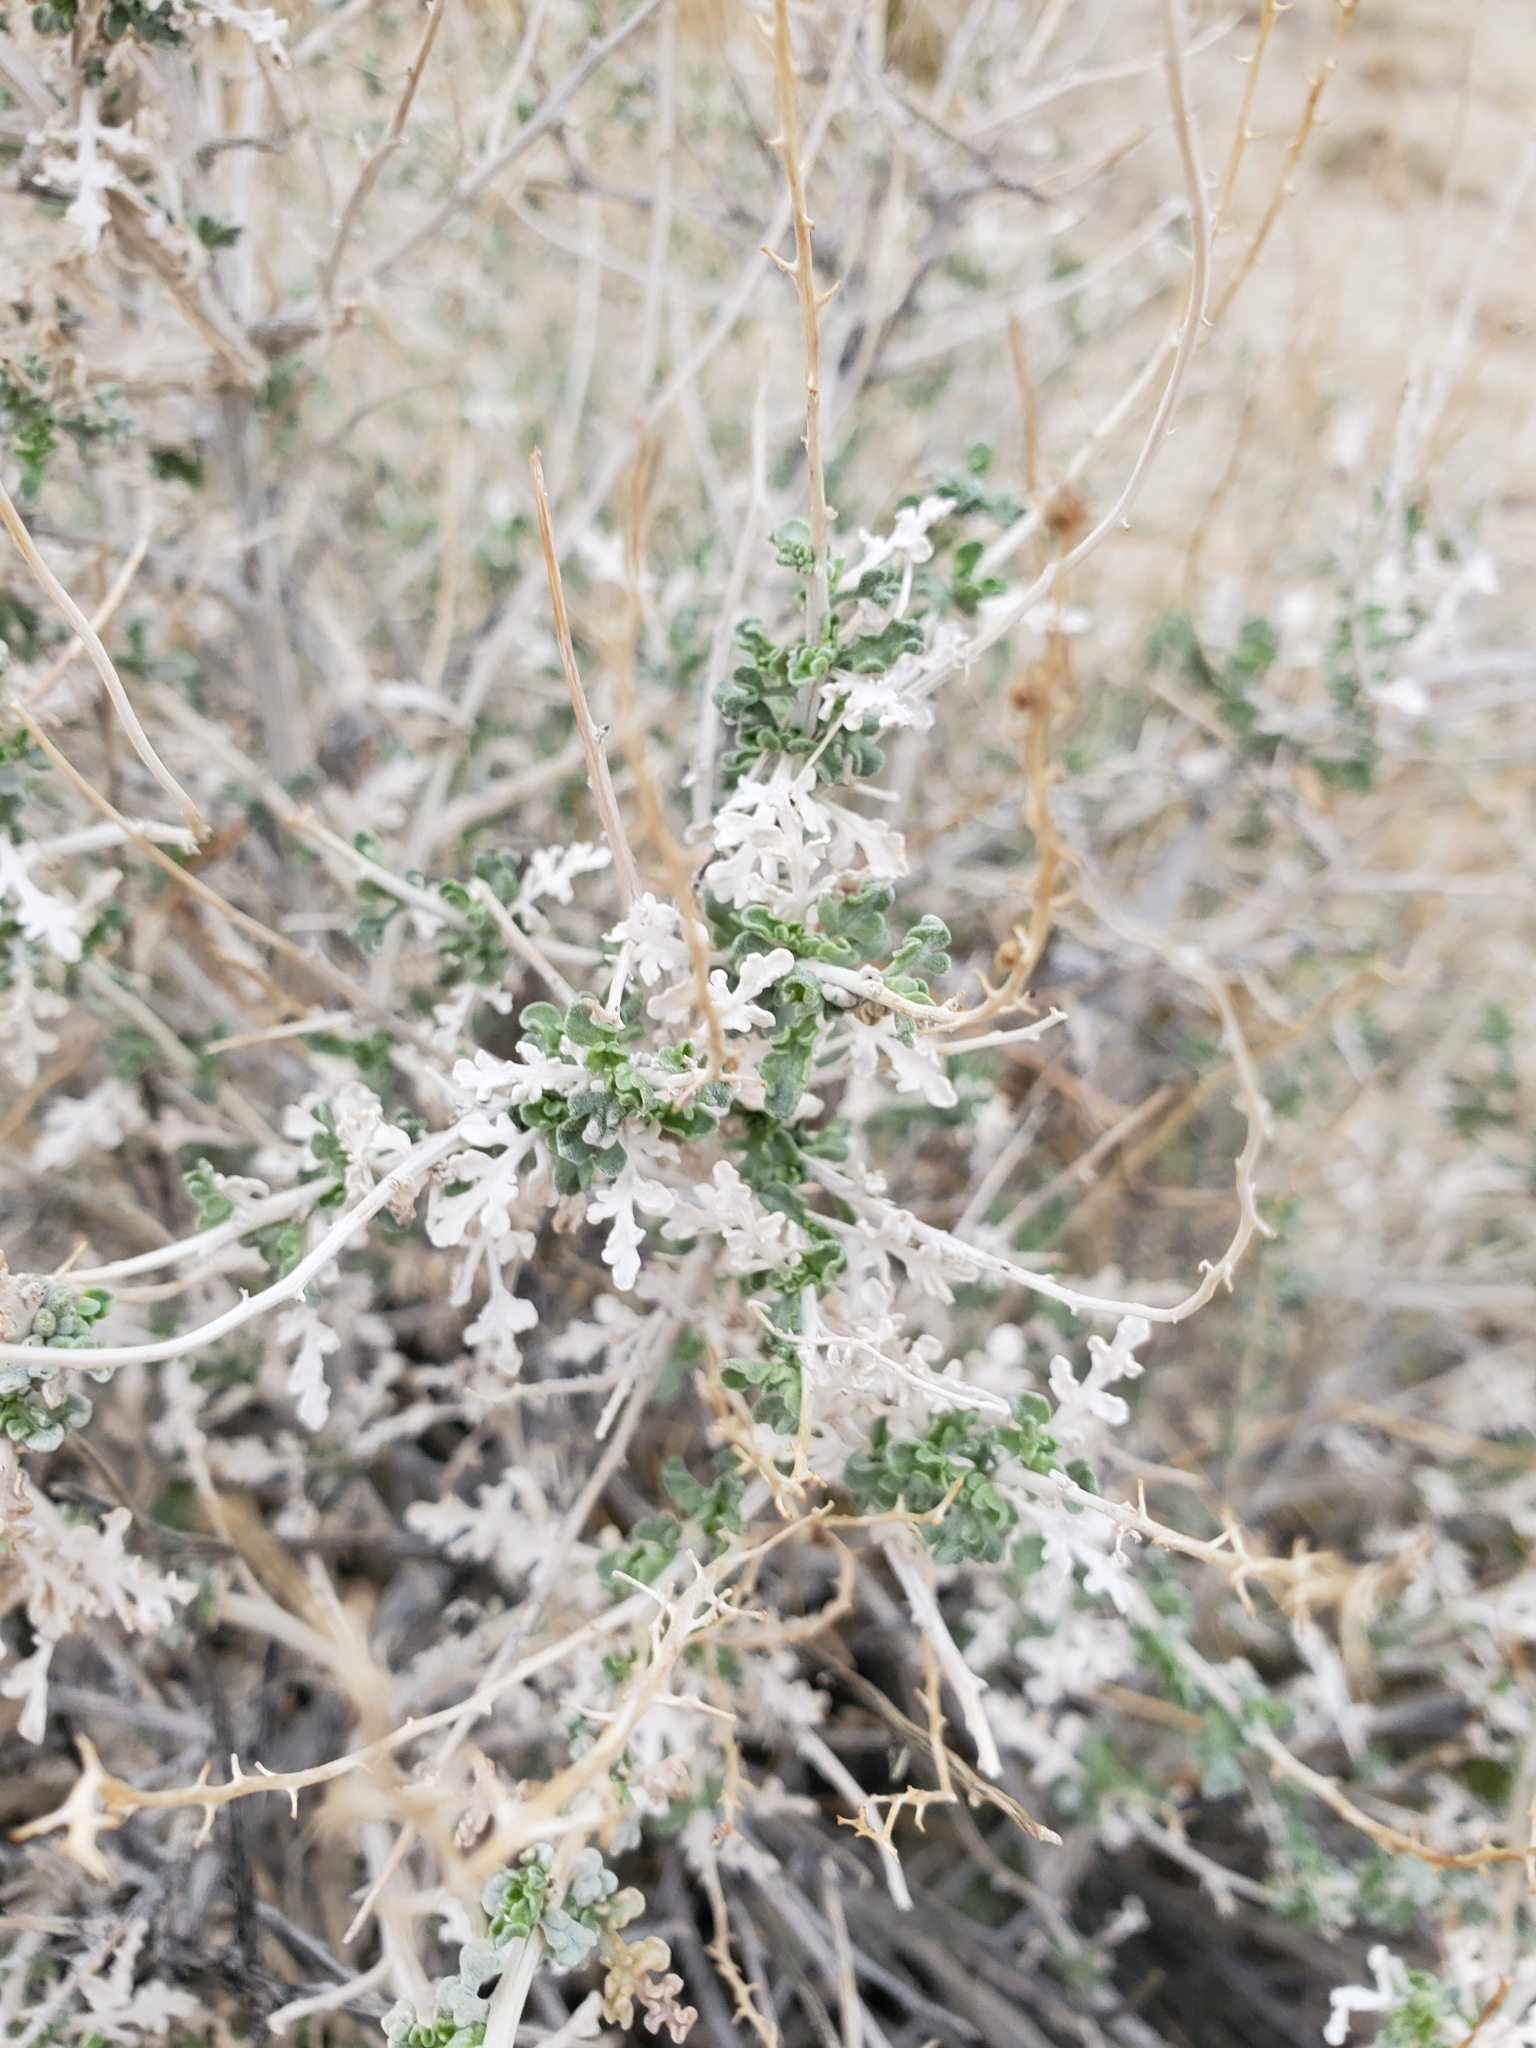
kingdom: Plantae
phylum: Tracheophyta
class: Magnoliopsida
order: Asterales
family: Asteraceae
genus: Ambrosia
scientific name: Ambrosia dumosa
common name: Bur-sage
